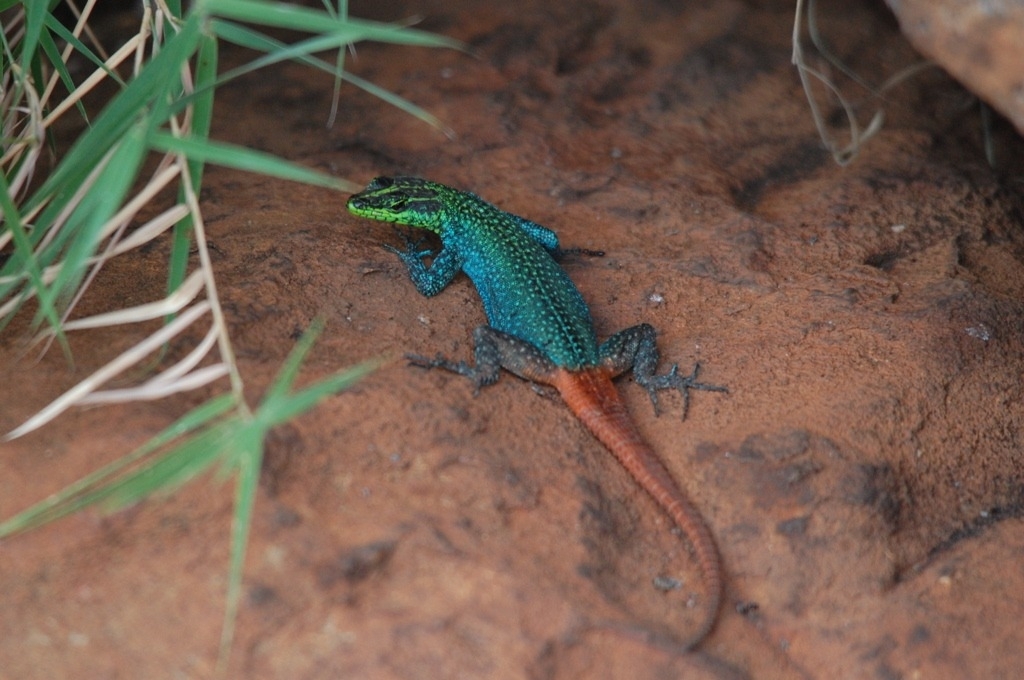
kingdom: Animalia
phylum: Chordata
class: Squamata
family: Cordylidae
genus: Platysaurus
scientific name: Platysaurus orientalis
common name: Sekhukune flat lizard
